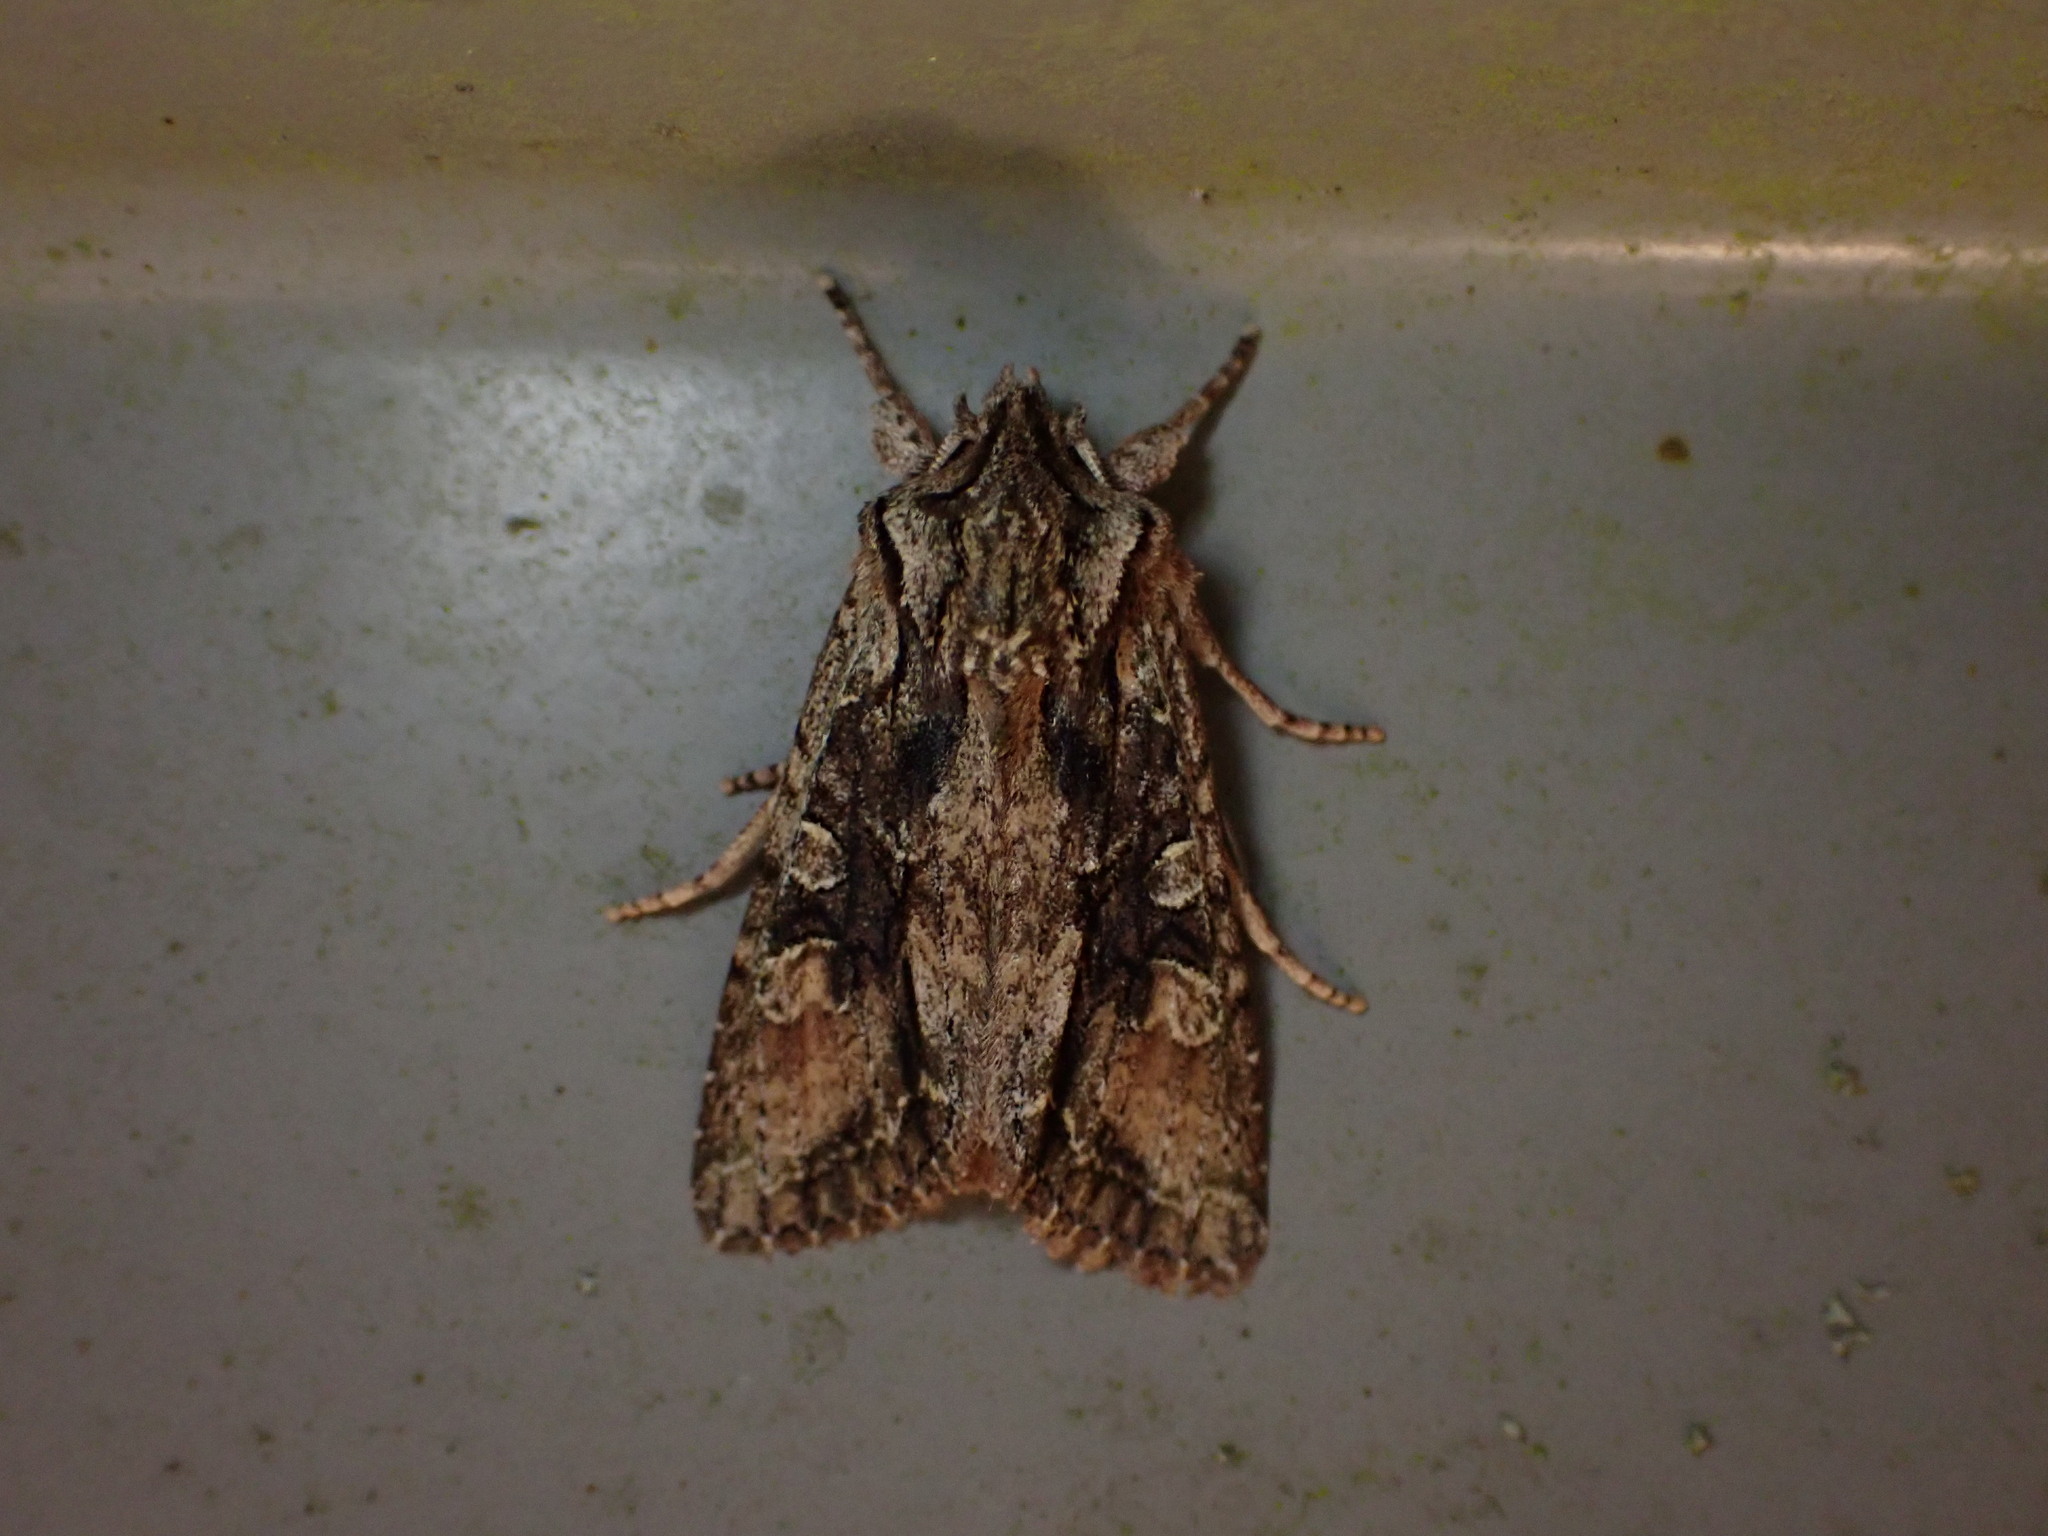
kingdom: Animalia
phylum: Arthropoda
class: Insecta
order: Lepidoptera
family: Noctuidae
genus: Ichneutica
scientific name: Ichneutica mutans
